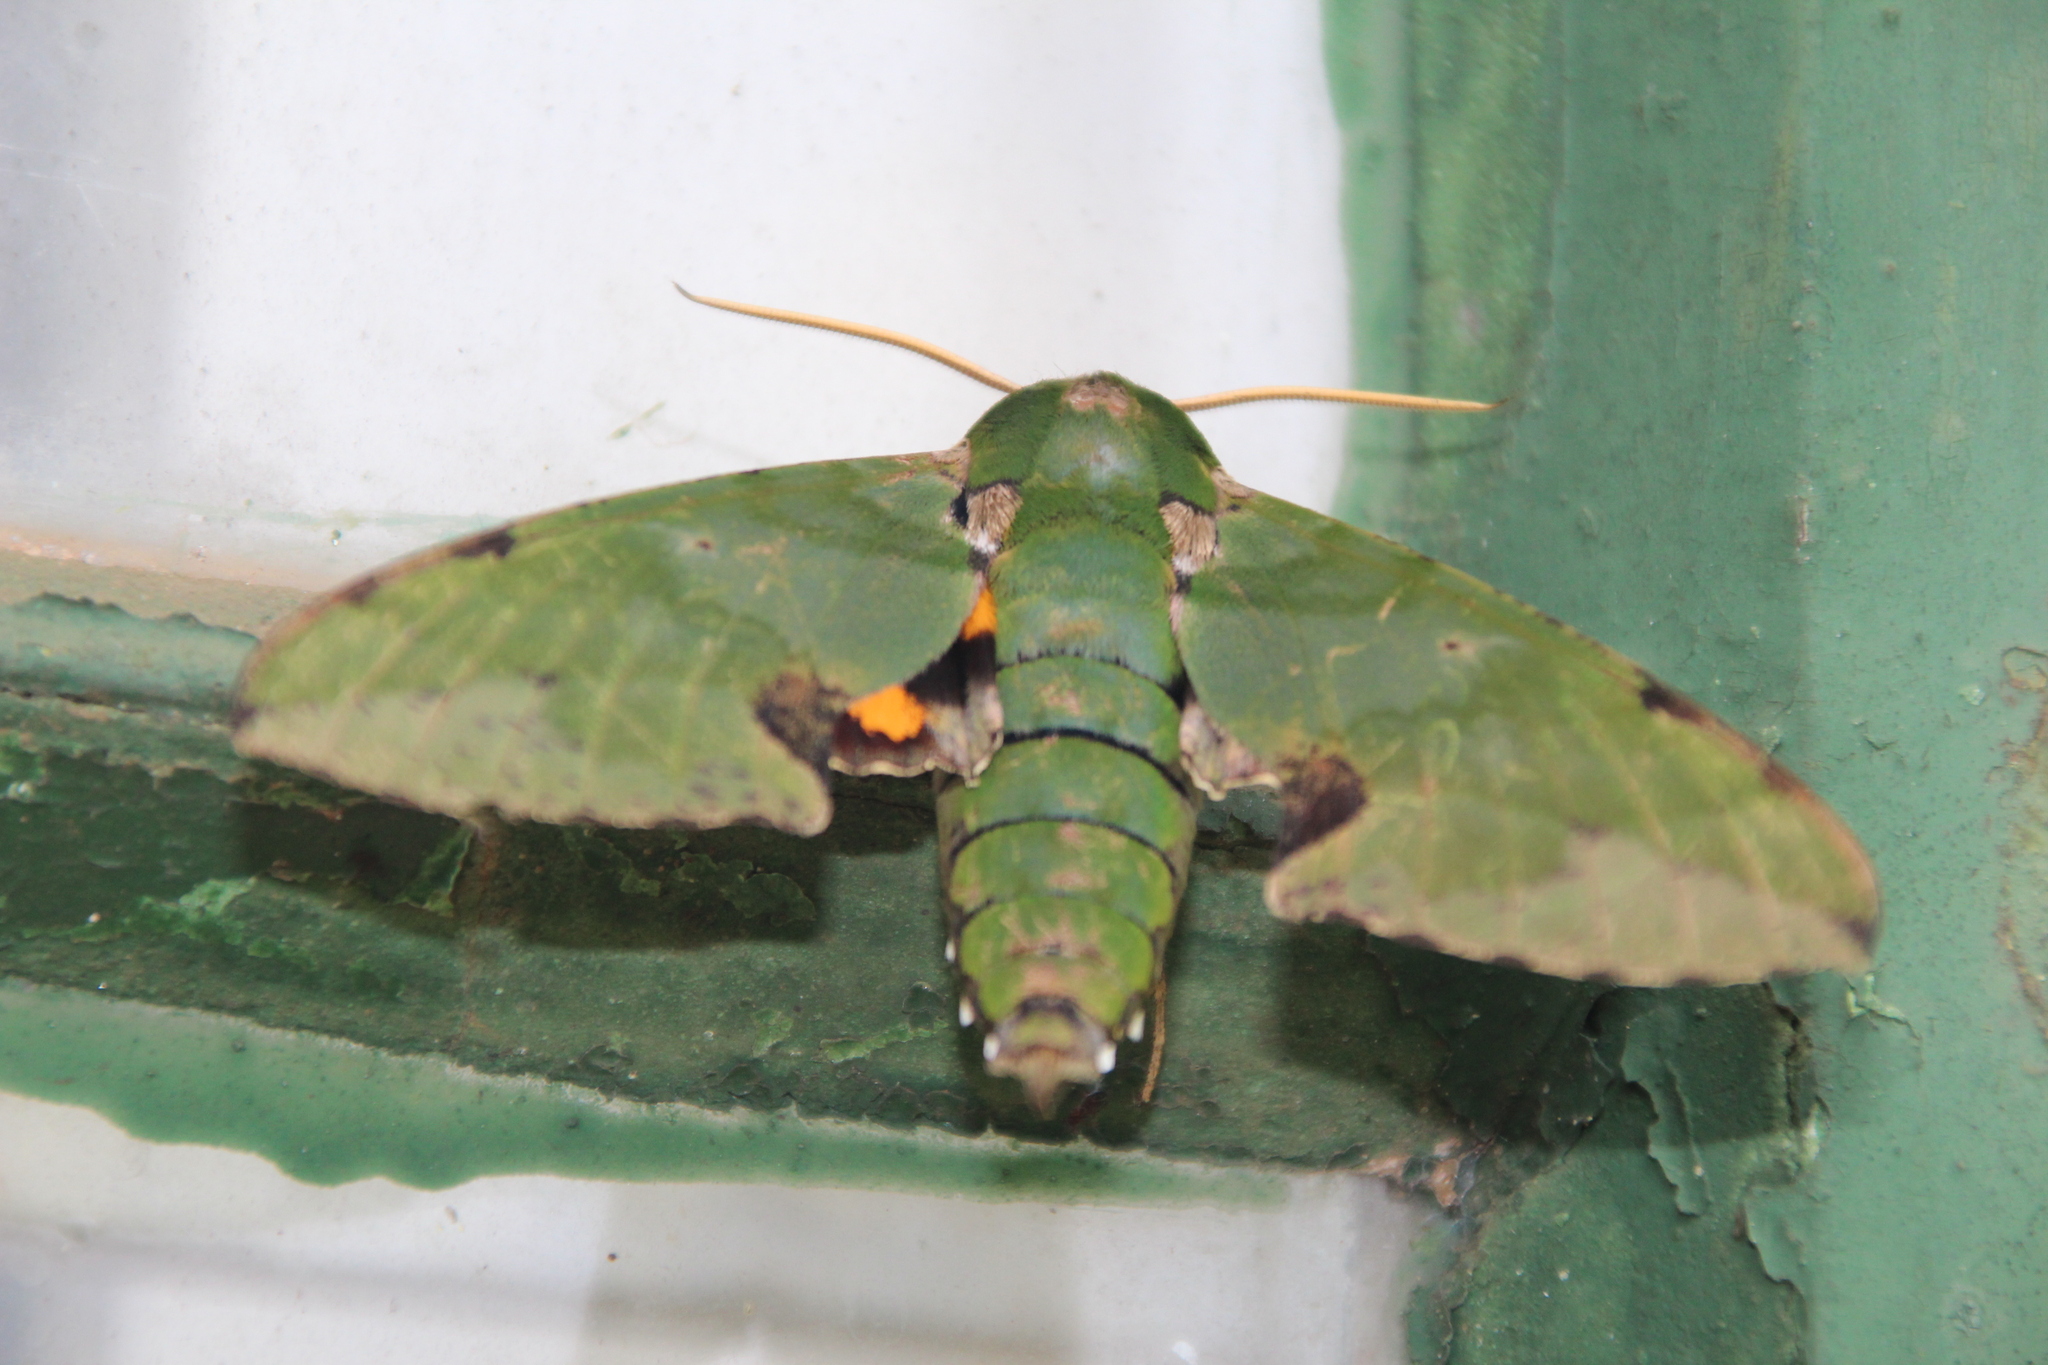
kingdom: Animalia
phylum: Arthropoda
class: Insecta
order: Lepidoptera
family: Sphingidae
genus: Euchloron
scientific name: Euchloron megaera
